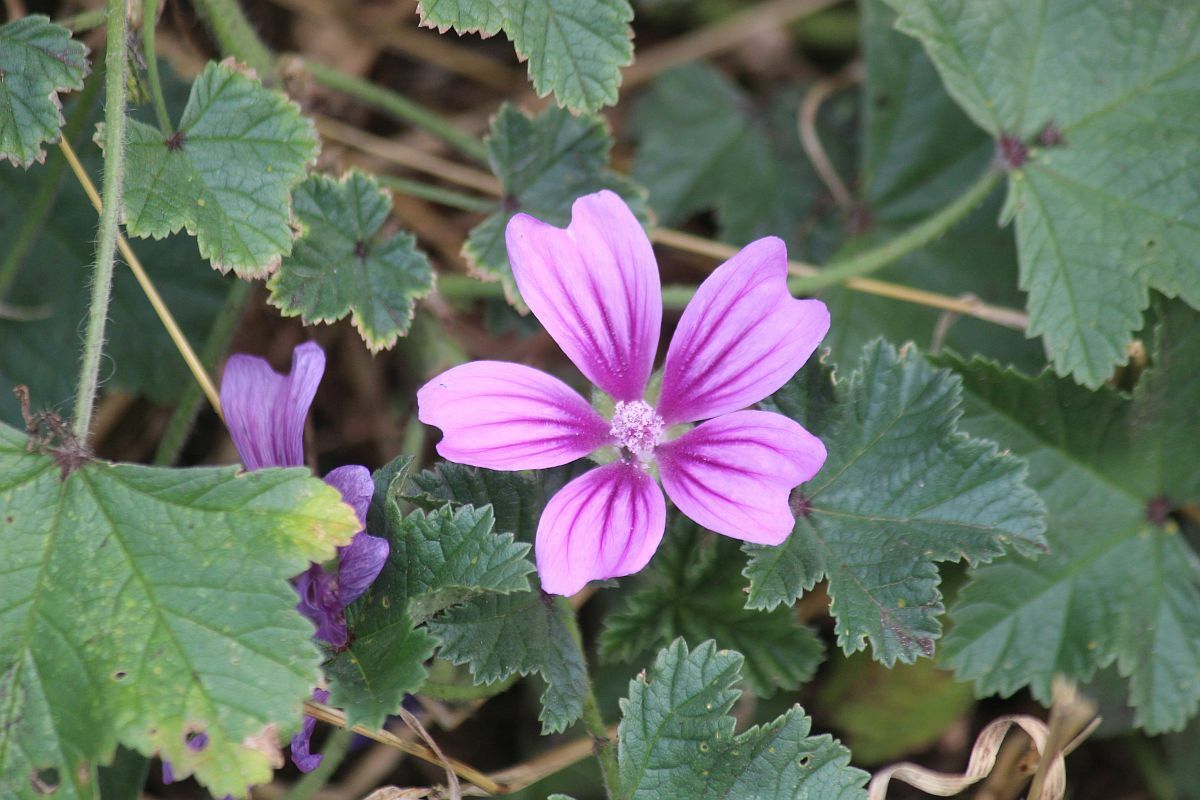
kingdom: Plantae
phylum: Tracheophyta
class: Magnoliopsida
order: Malvales
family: Malvaceae
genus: Malva
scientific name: Malva sylvestris
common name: Common mallow
